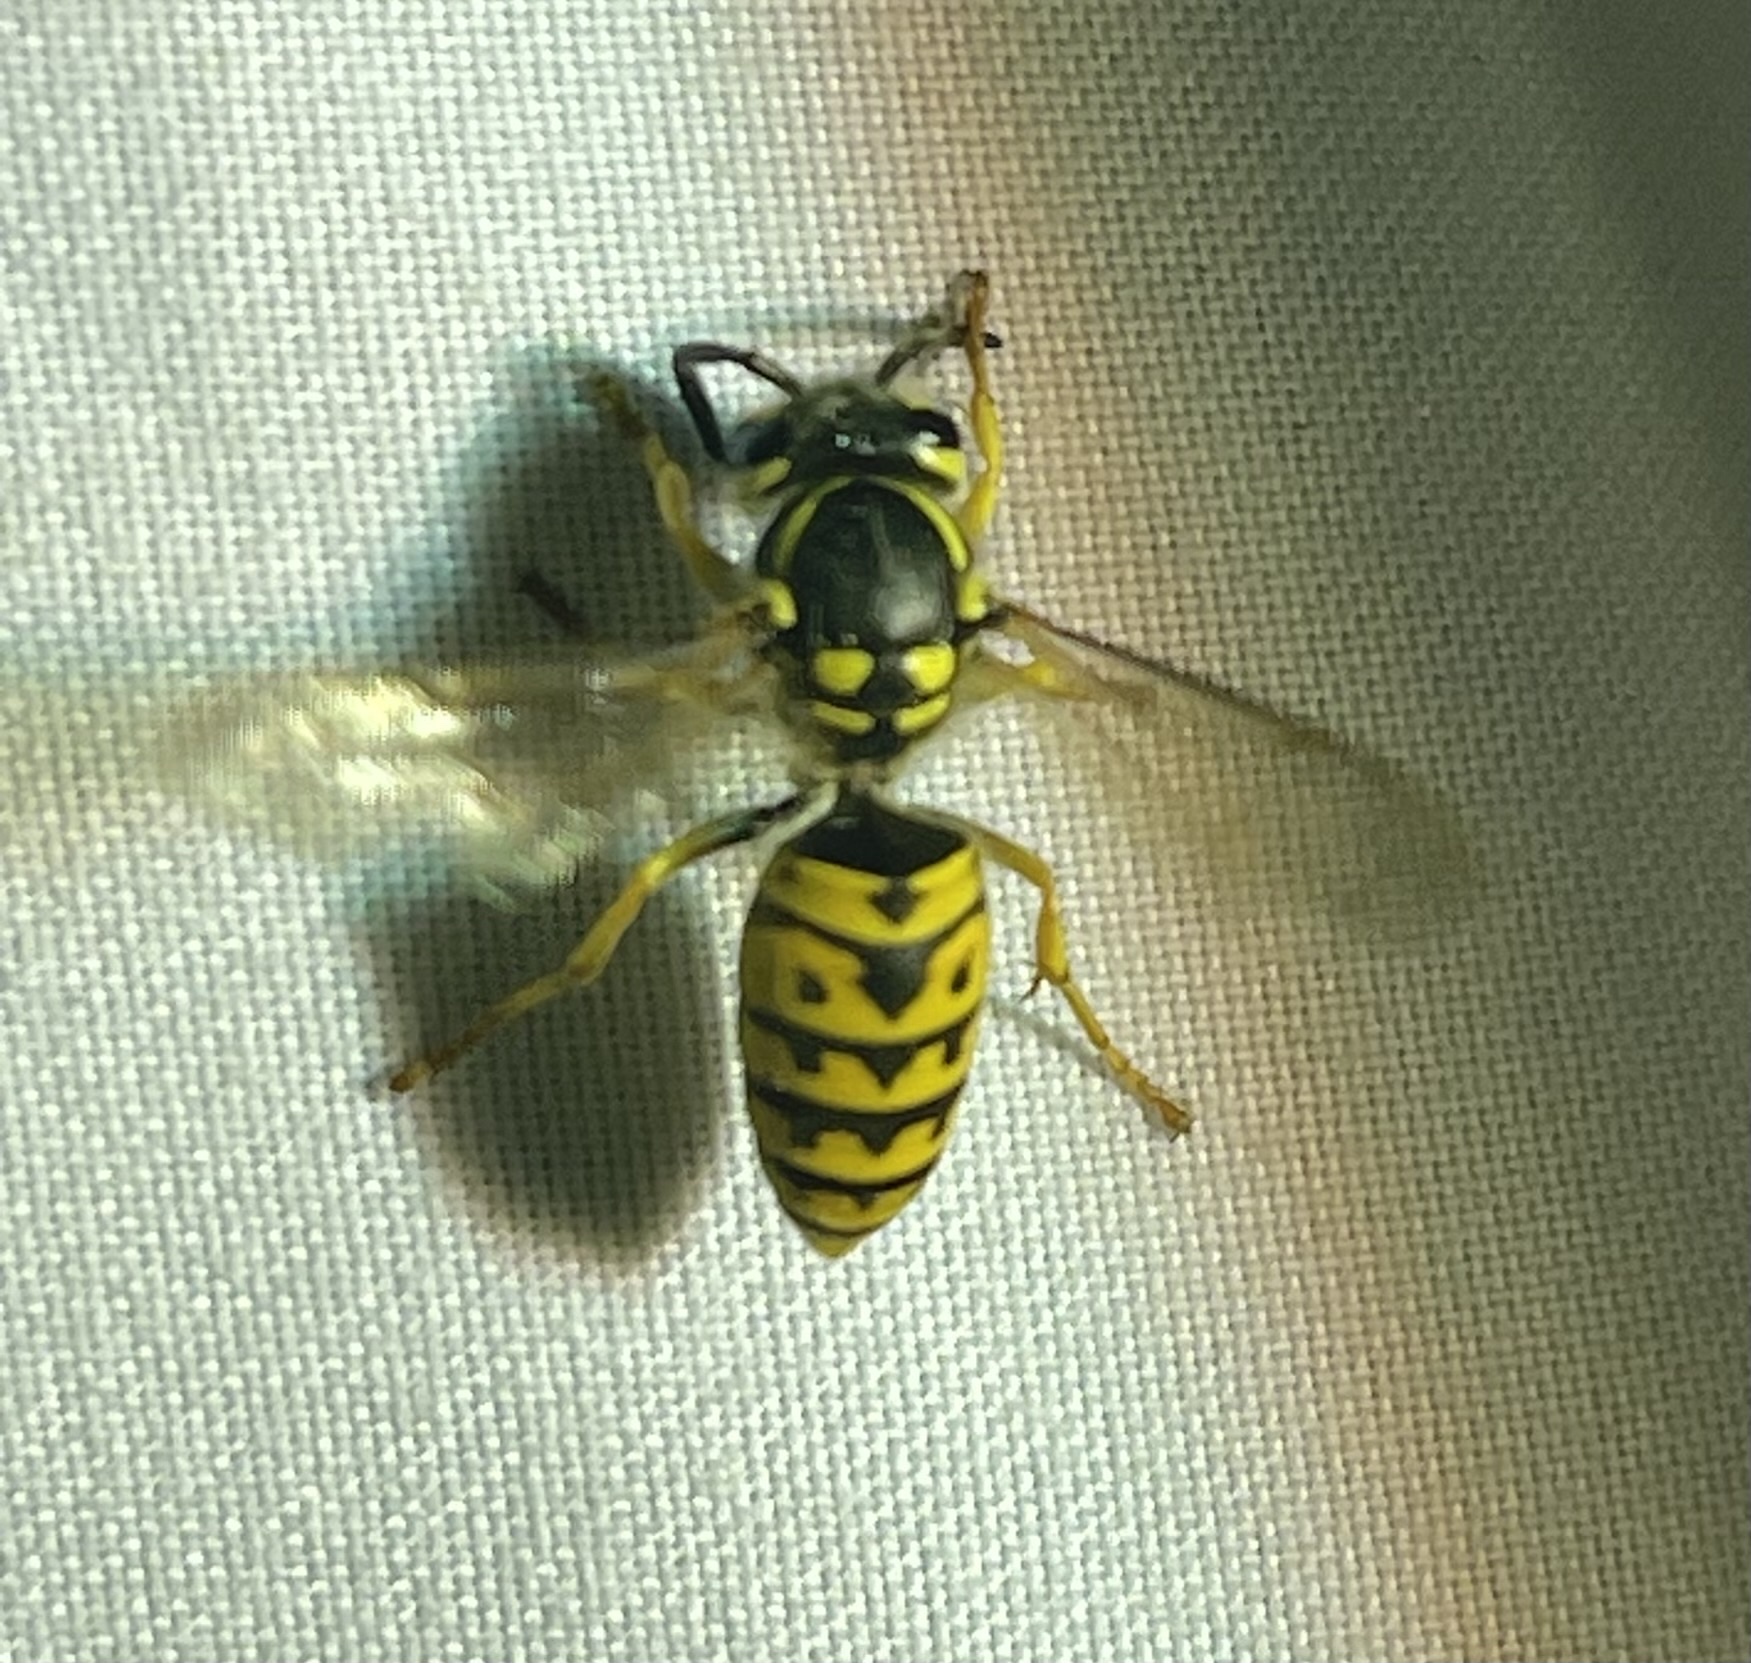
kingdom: Animalia
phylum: Arthropoda
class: Insecta
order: Hymenoptera
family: Vespidae
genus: Vespula
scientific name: Vespula germanica
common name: German wasp
